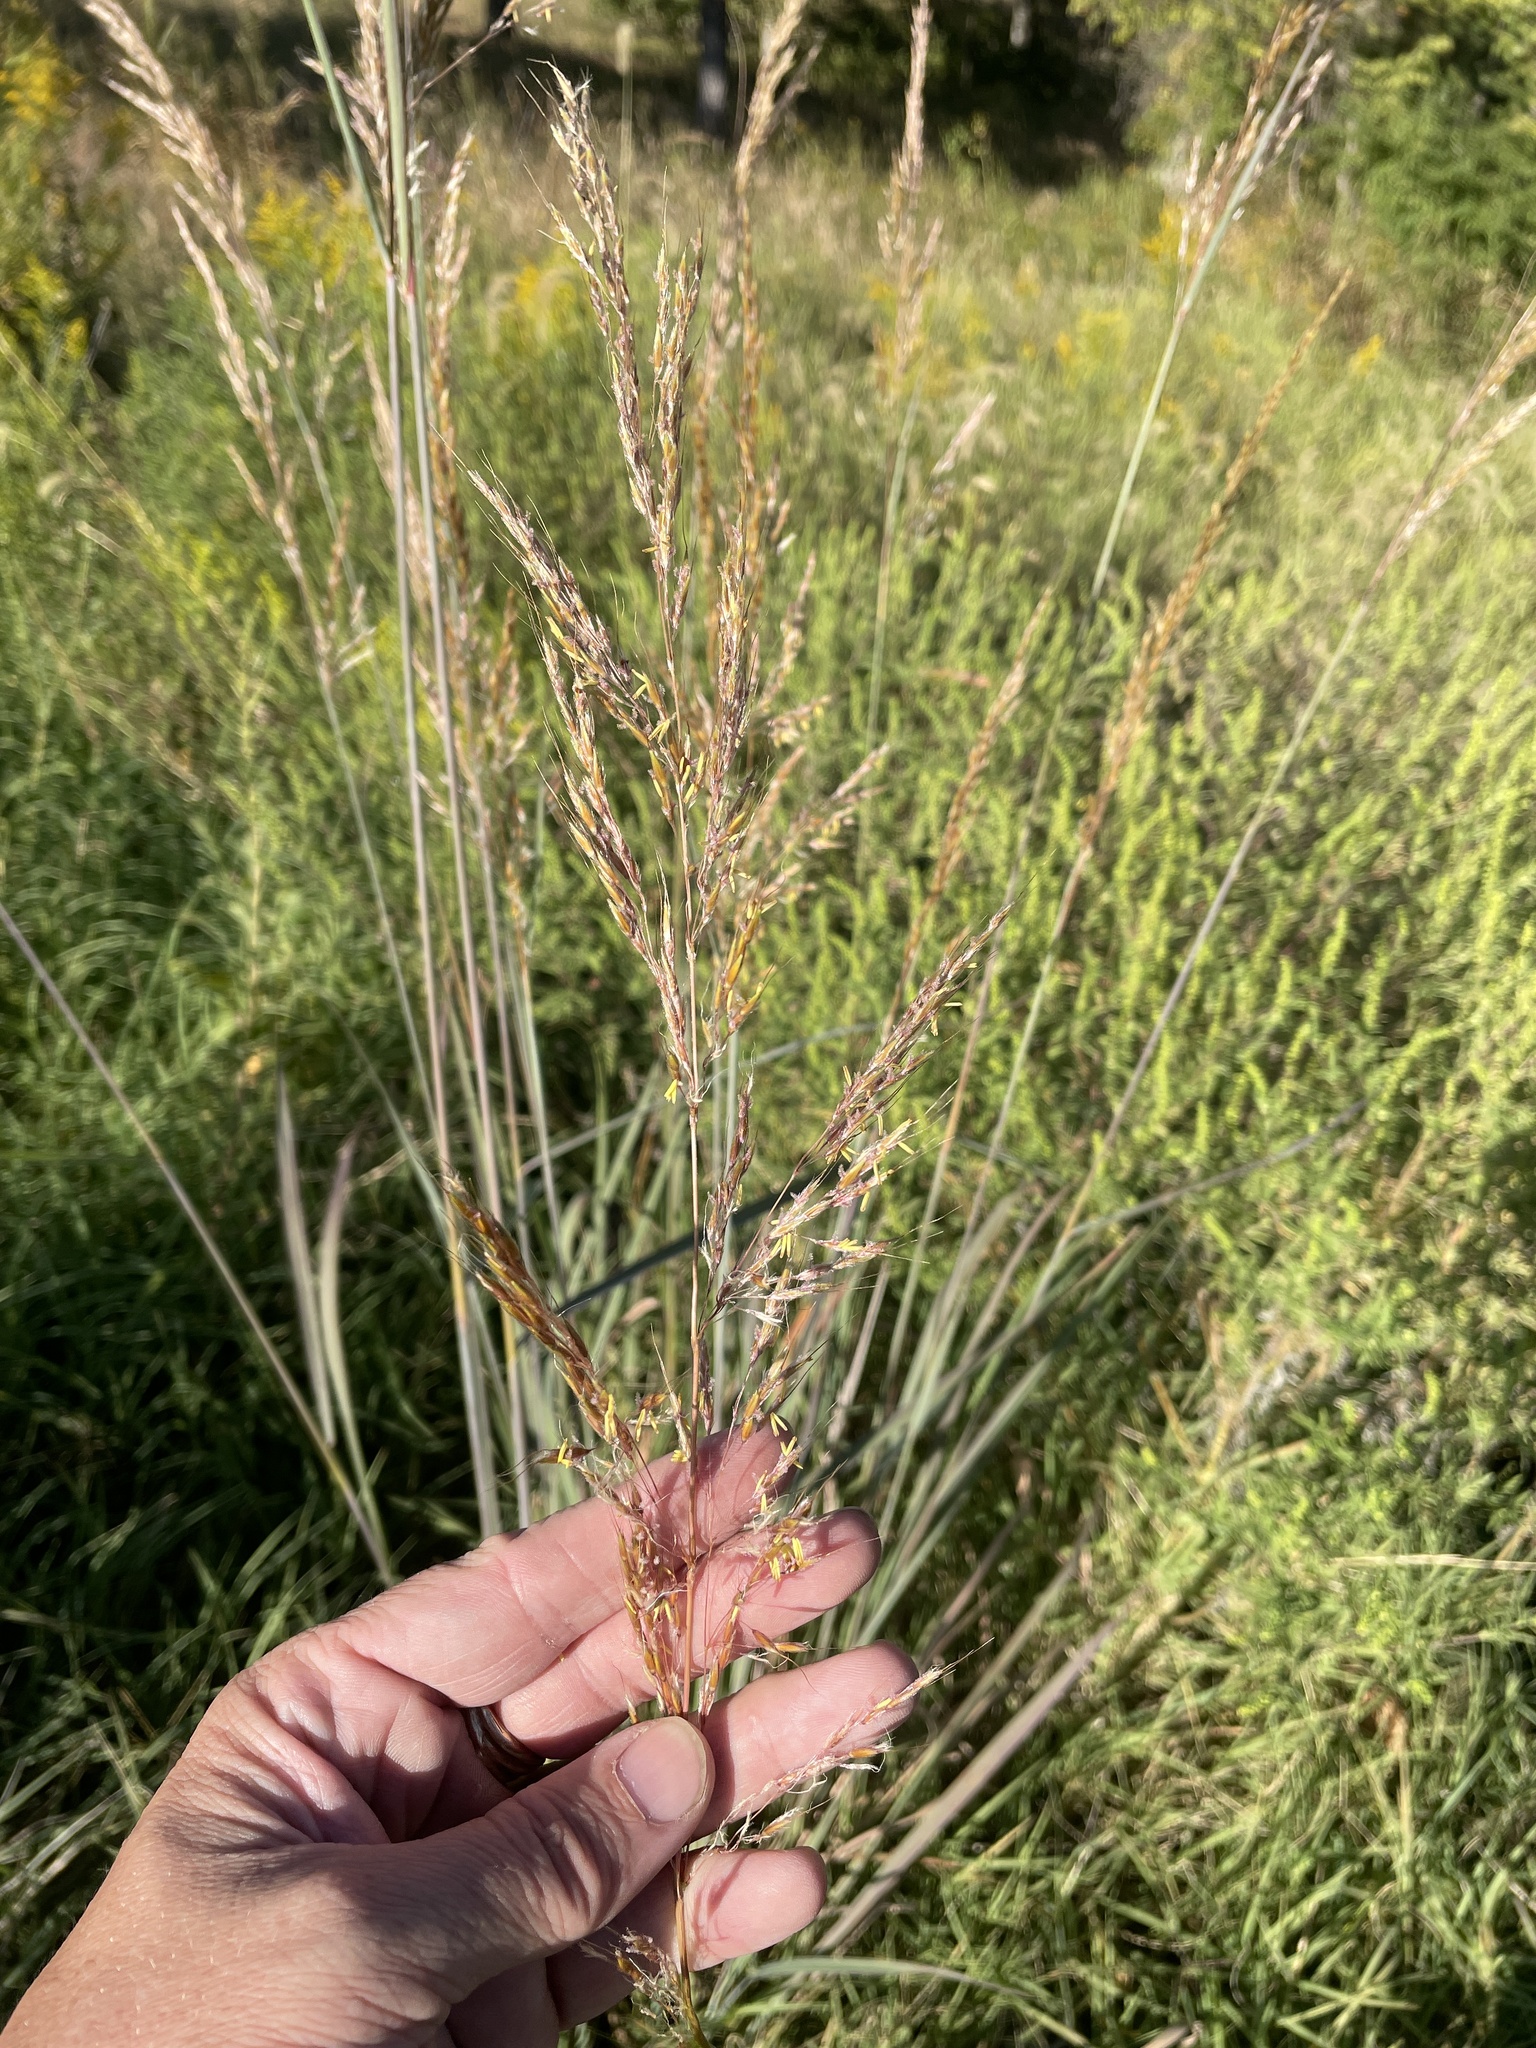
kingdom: Plantae
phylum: Tracheophyta
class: Liliopsida
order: Poales
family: Poaceae
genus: Sorghastrum
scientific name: Sorghastrum nutans
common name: Indian grass
